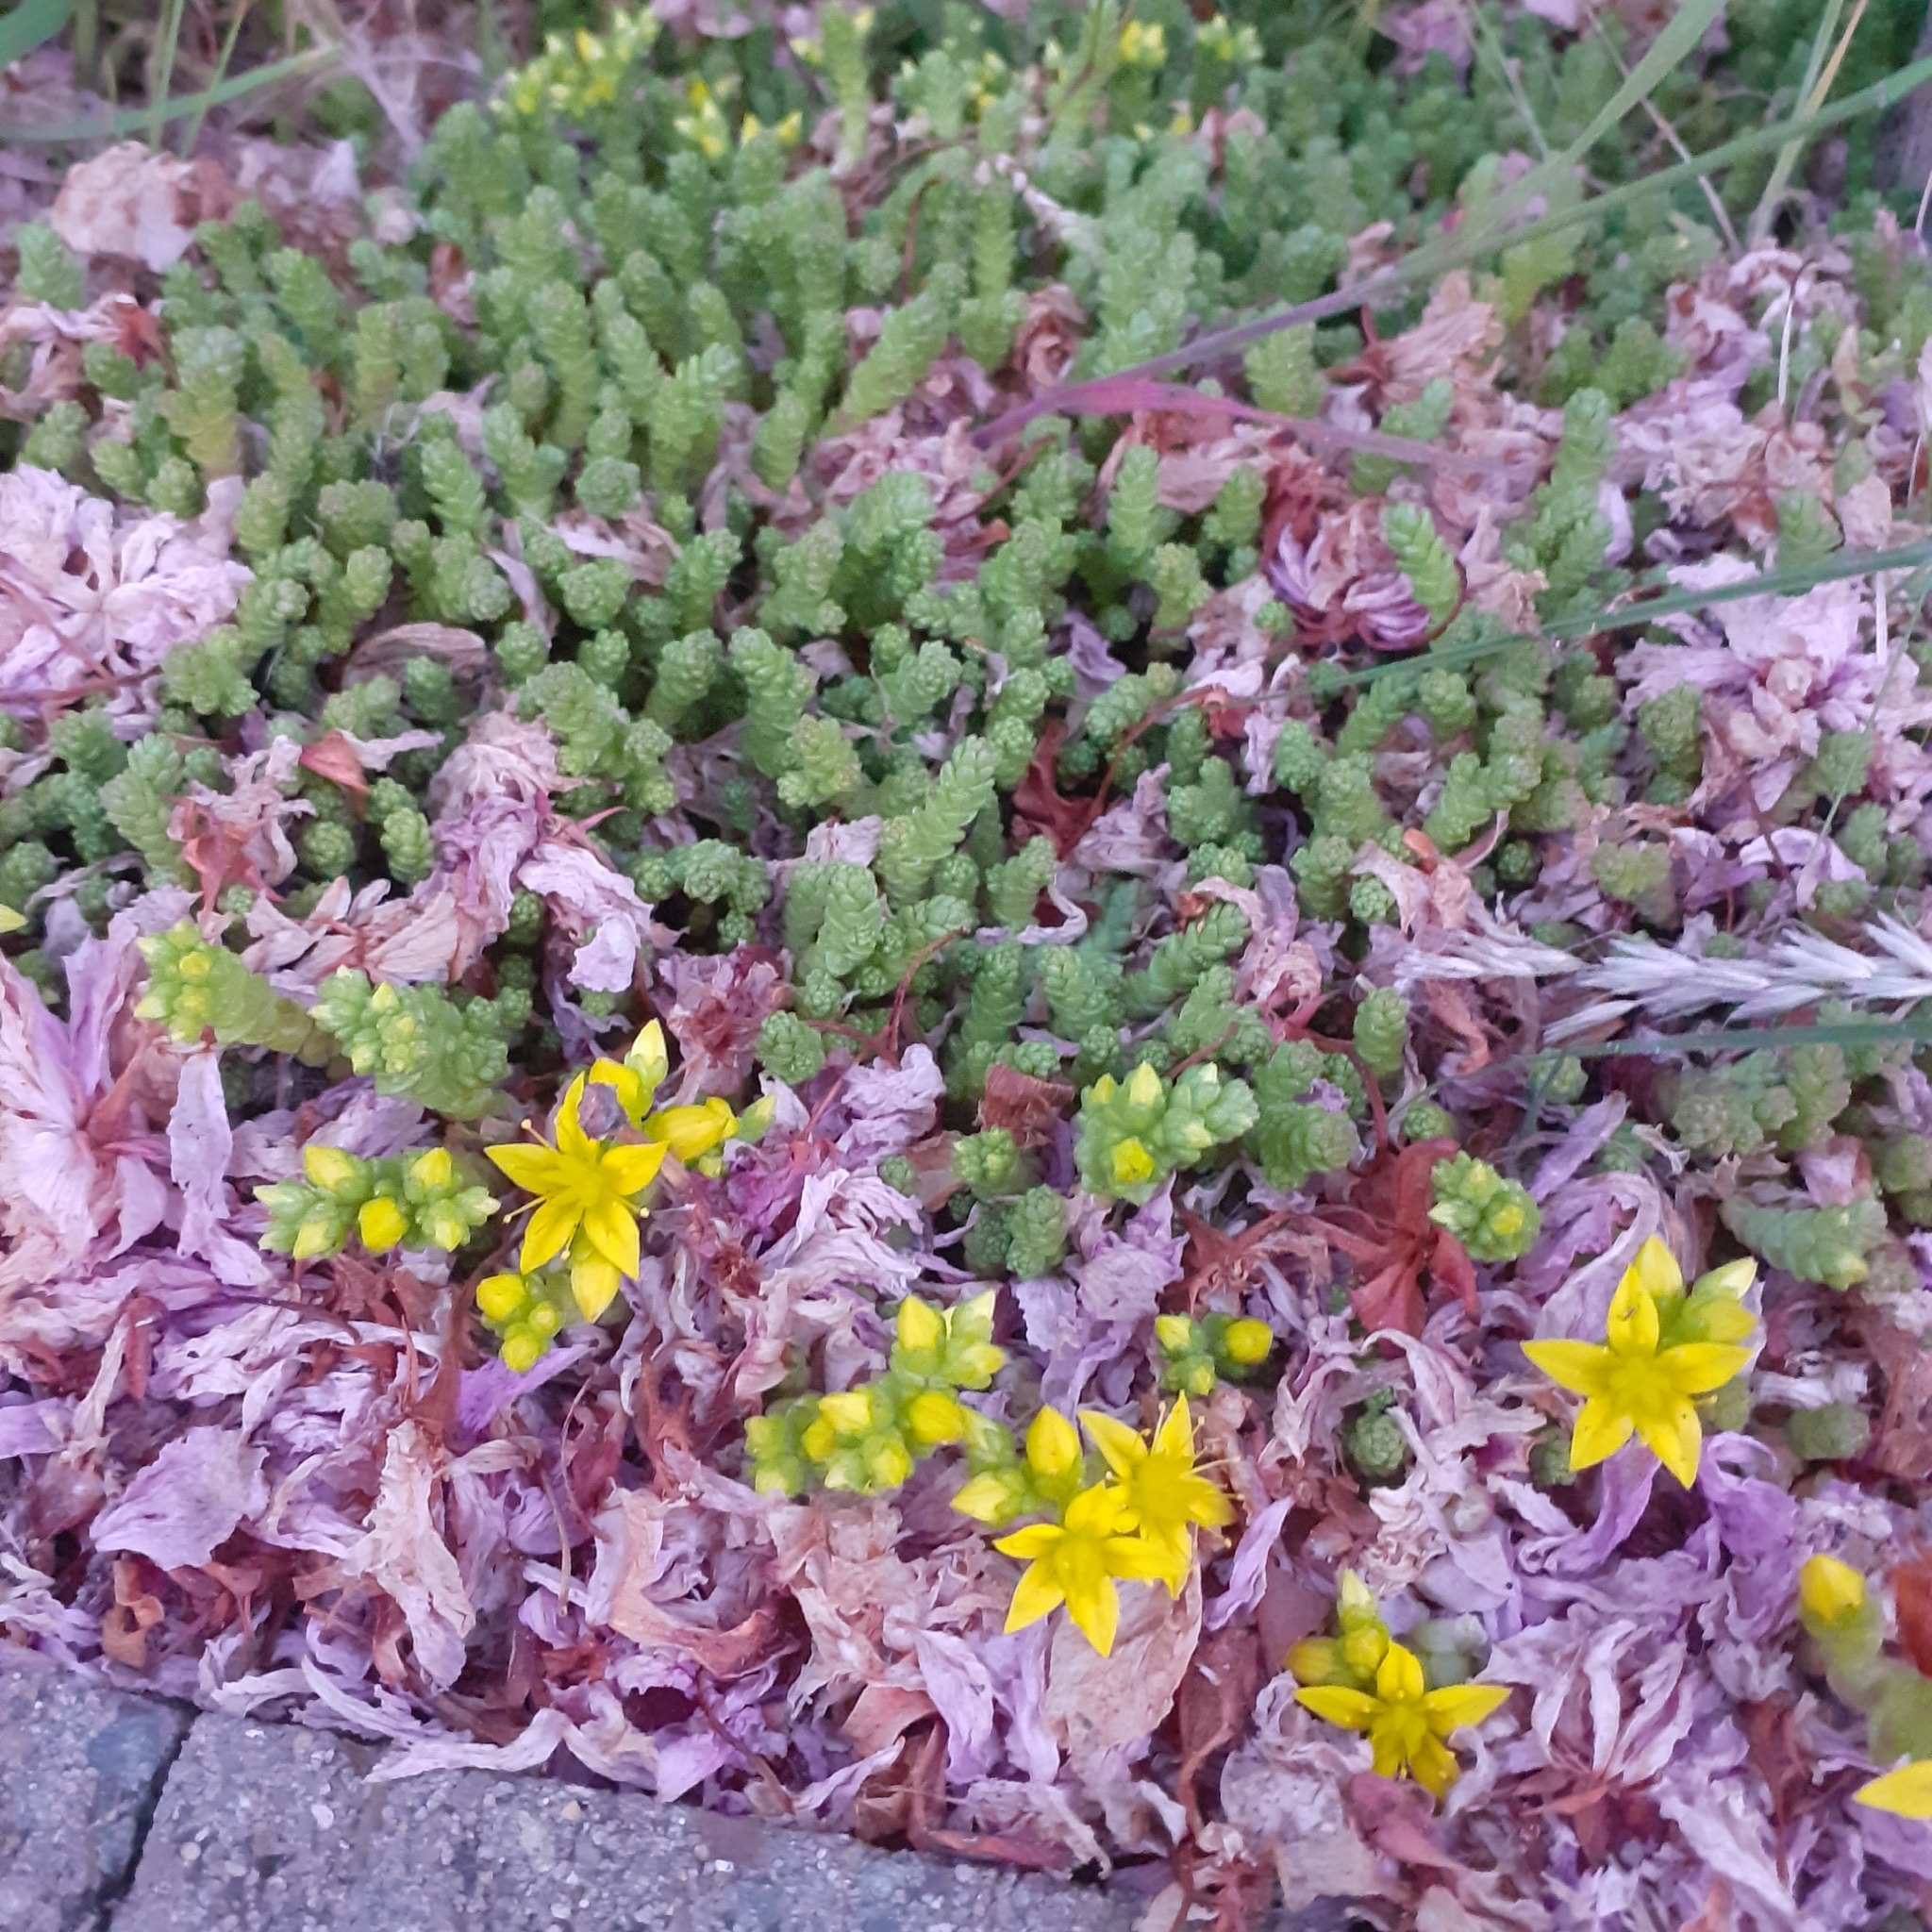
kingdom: Plantae
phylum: Tracheophyta
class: Magnoliopsida
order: Saxifragales
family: Crassulaceae
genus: Sedum
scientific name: Sedum acre
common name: Biting stonecrop
